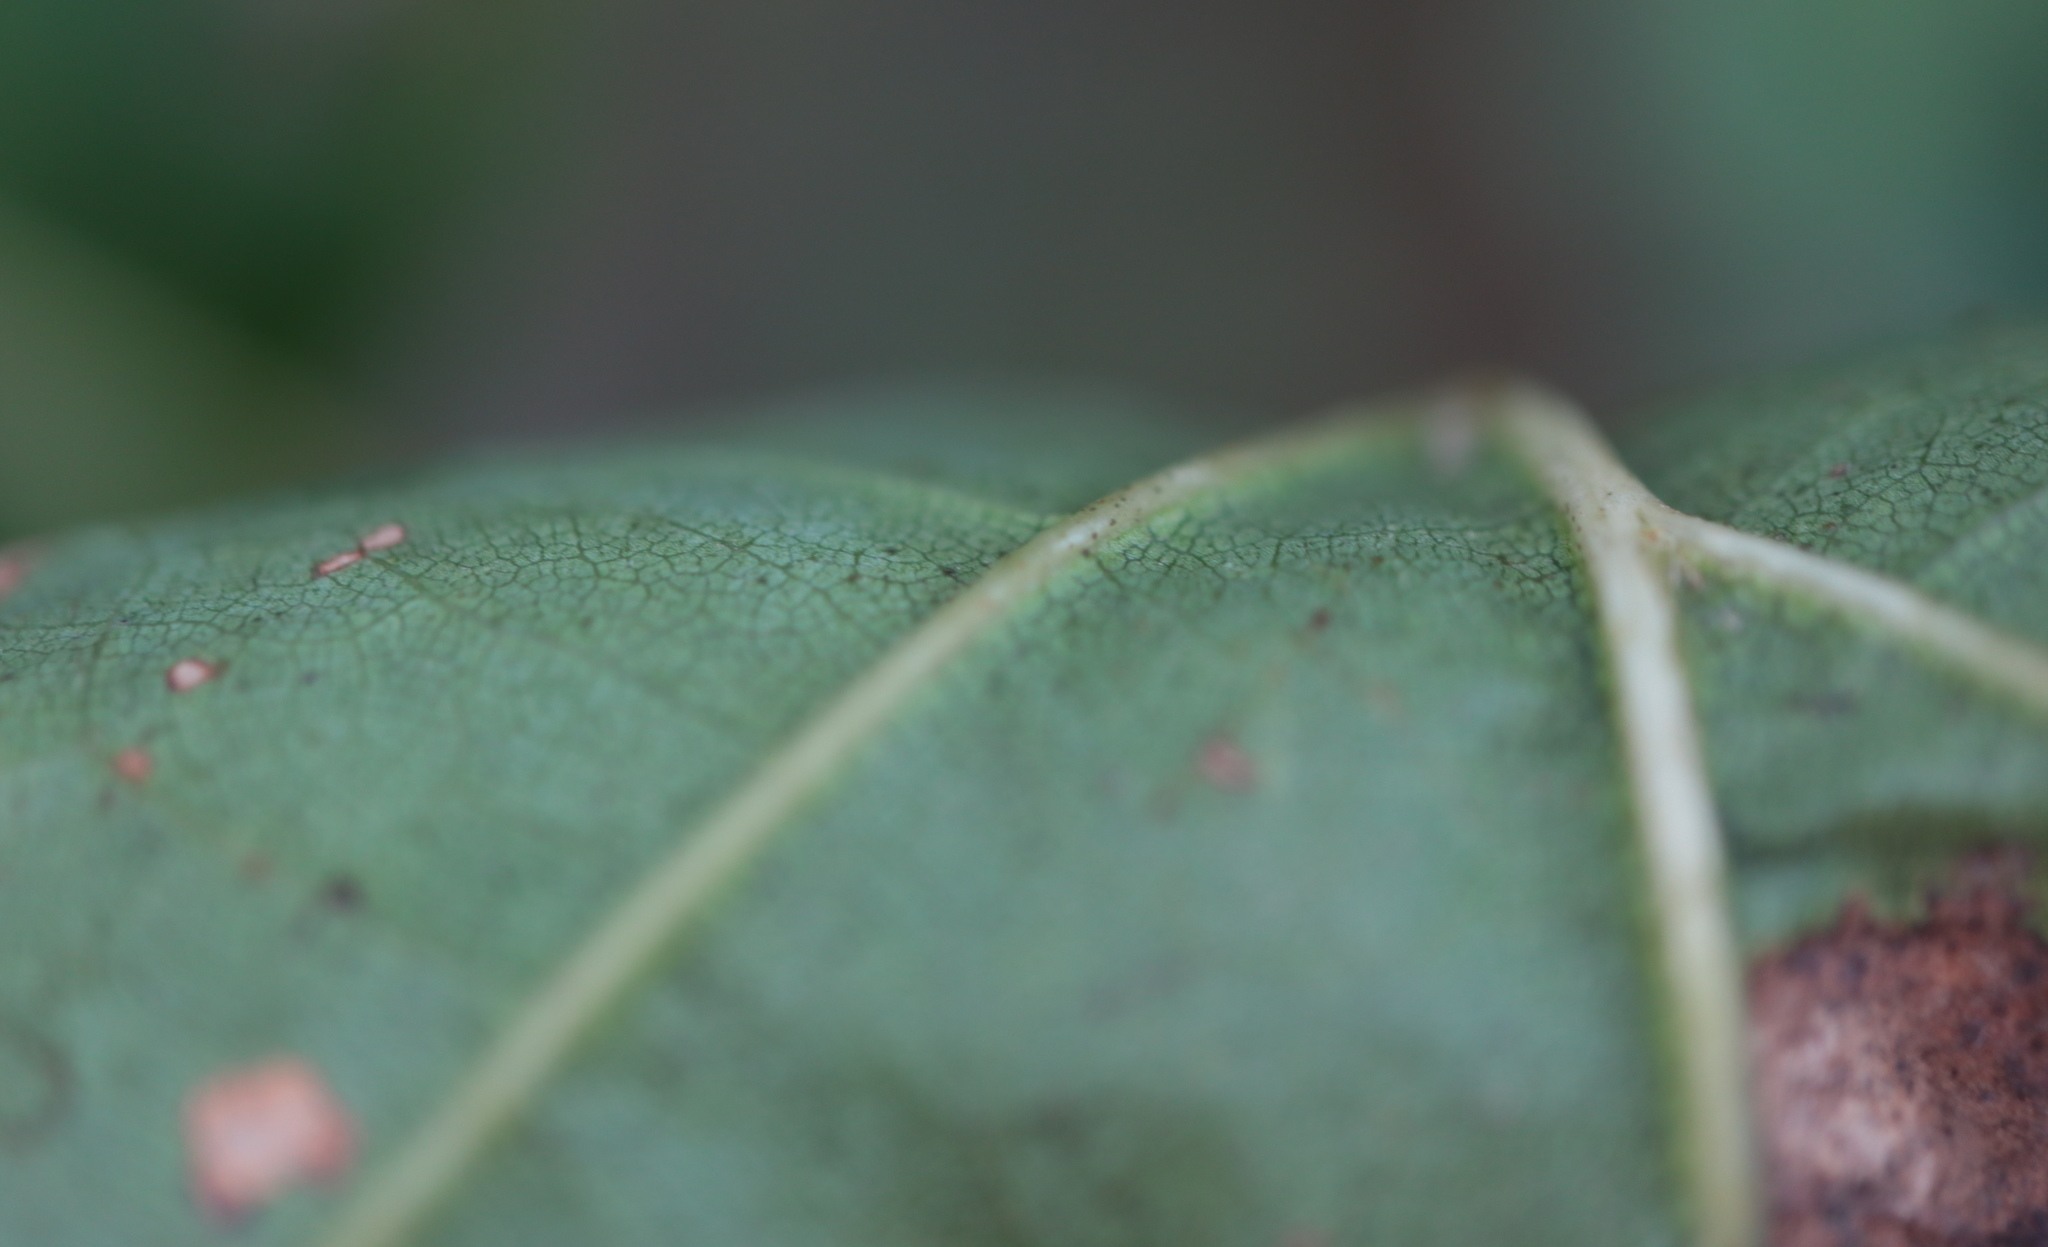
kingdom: Plantae
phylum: Tracheophyta
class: Magnoliopsida
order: Fagales
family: Fagaceae
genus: Quercus
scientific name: Quercus rubra
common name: Red oak
